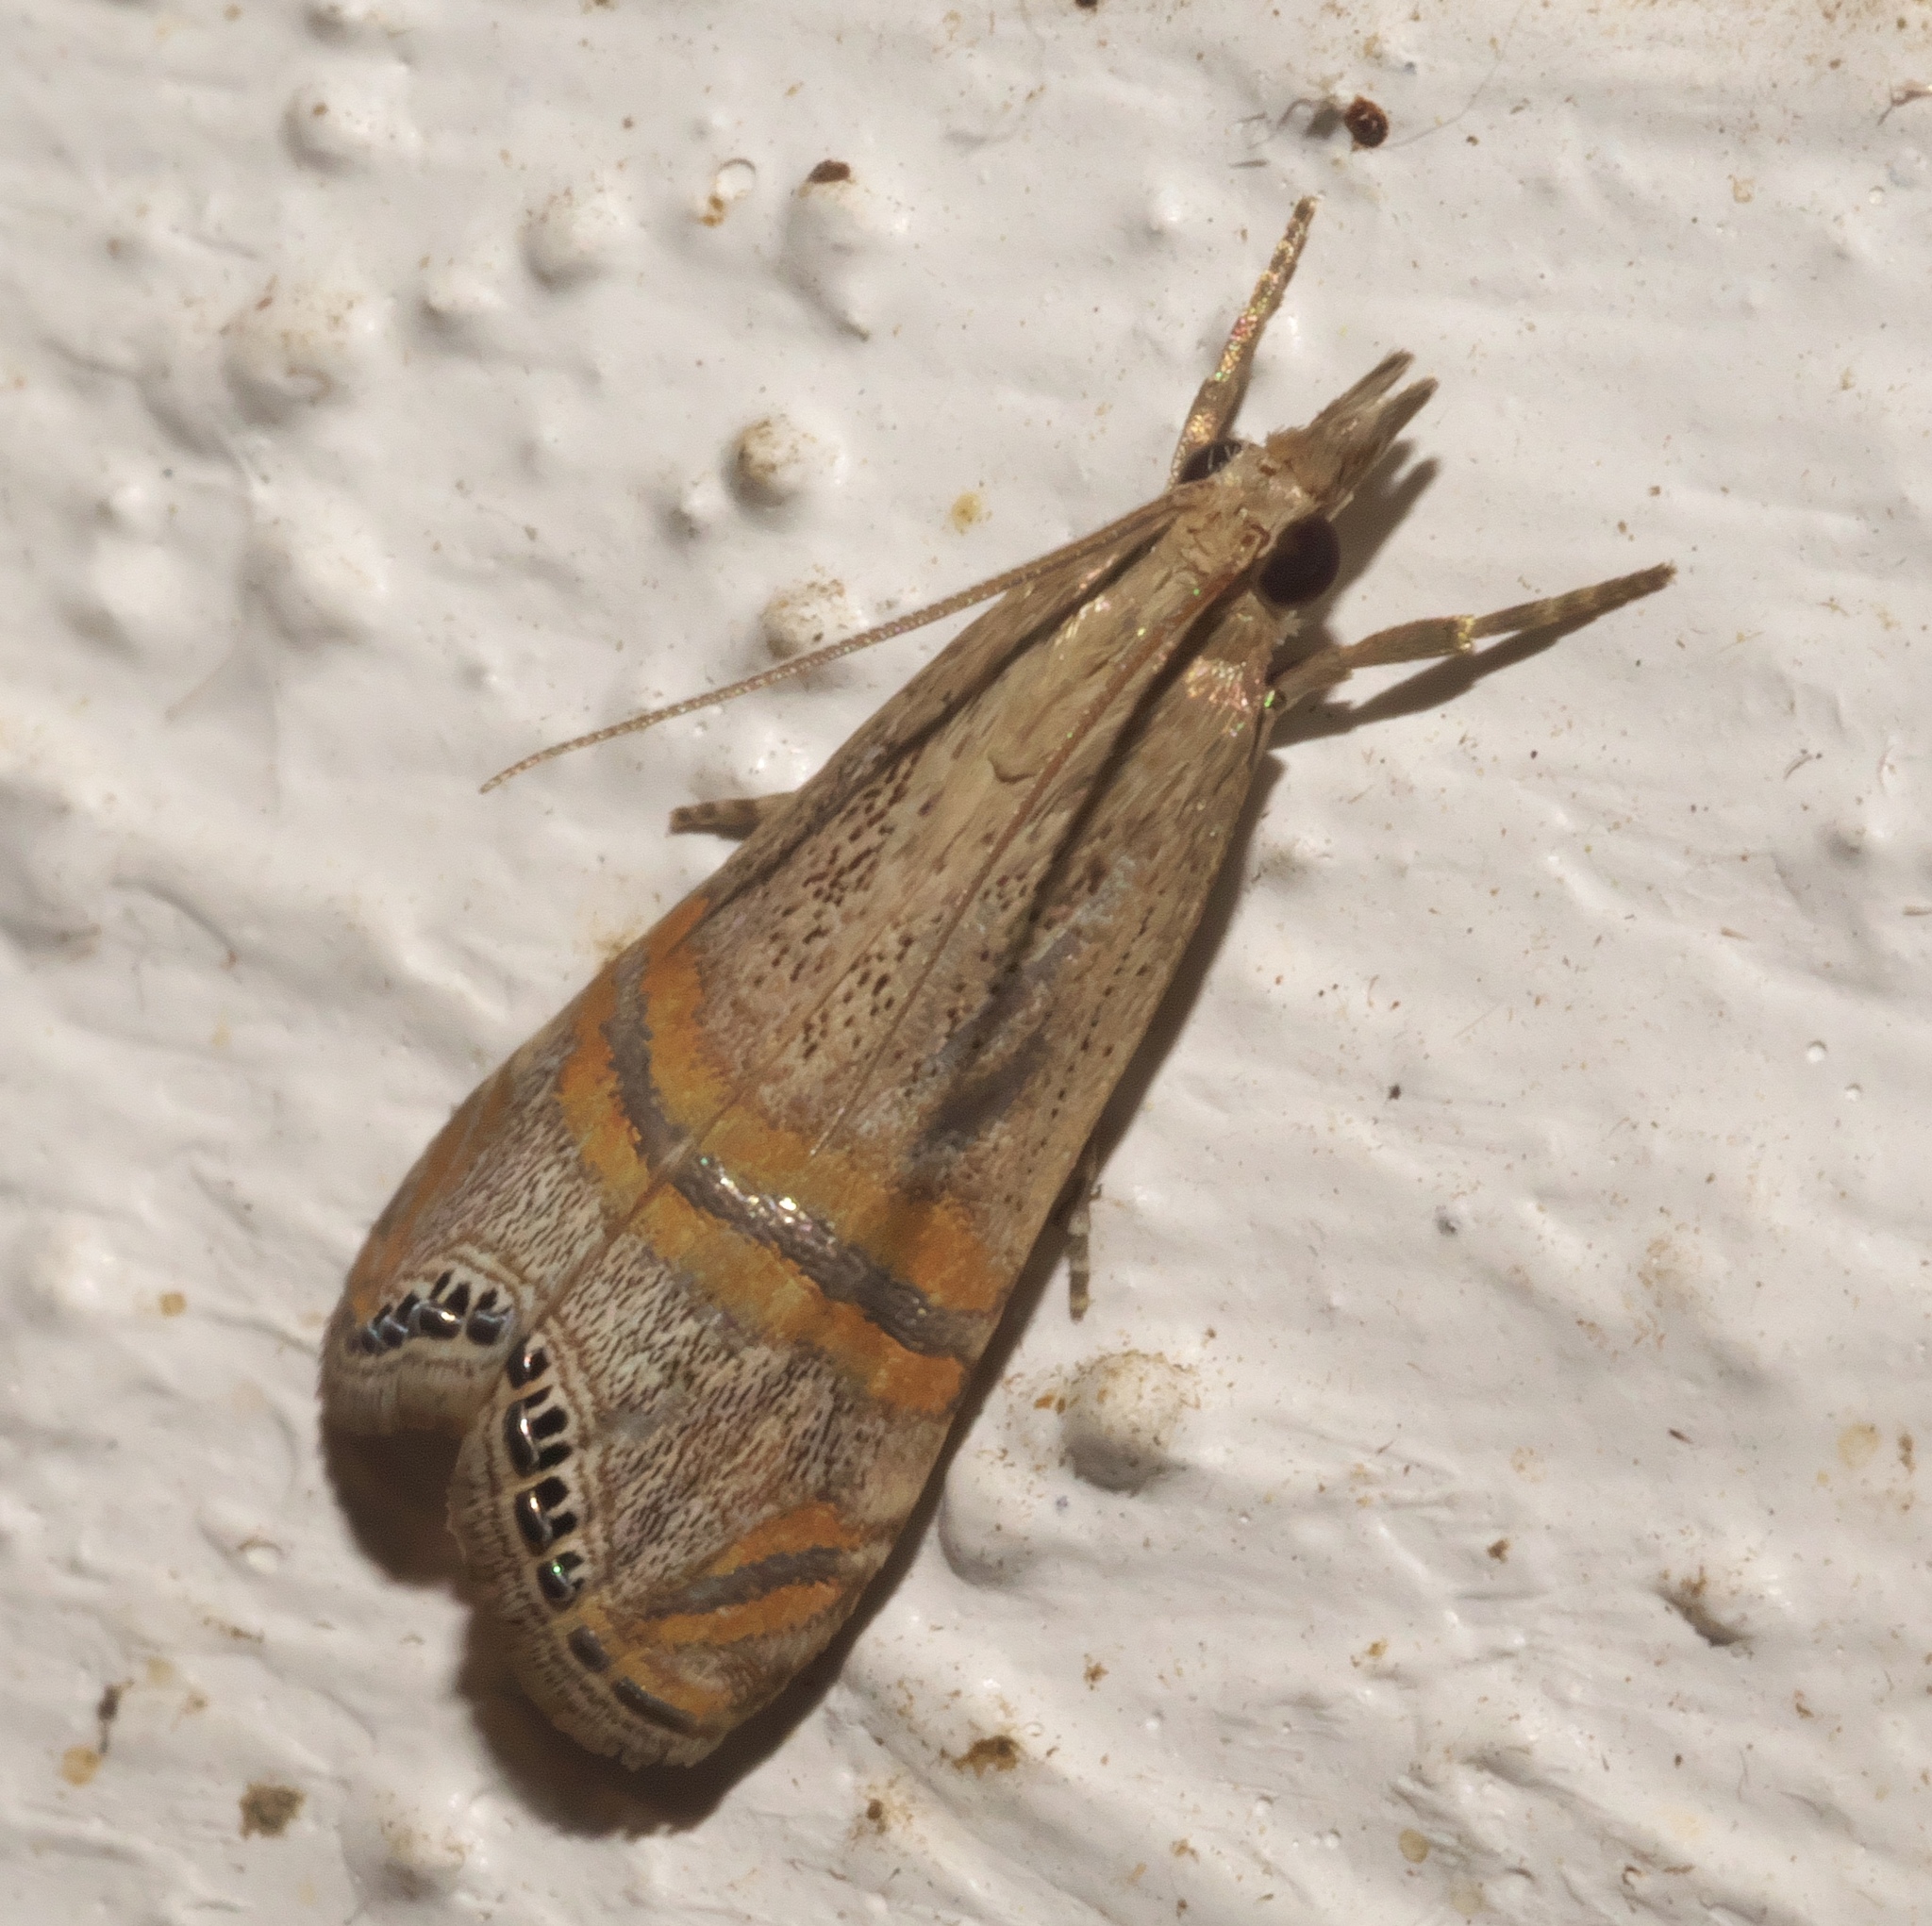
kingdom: Animalia
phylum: Arthropoda
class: Insecta
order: Lepidoptera
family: Crambidae
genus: Euchromius
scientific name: Euchromius ocellea
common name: Necklace veneer moth
